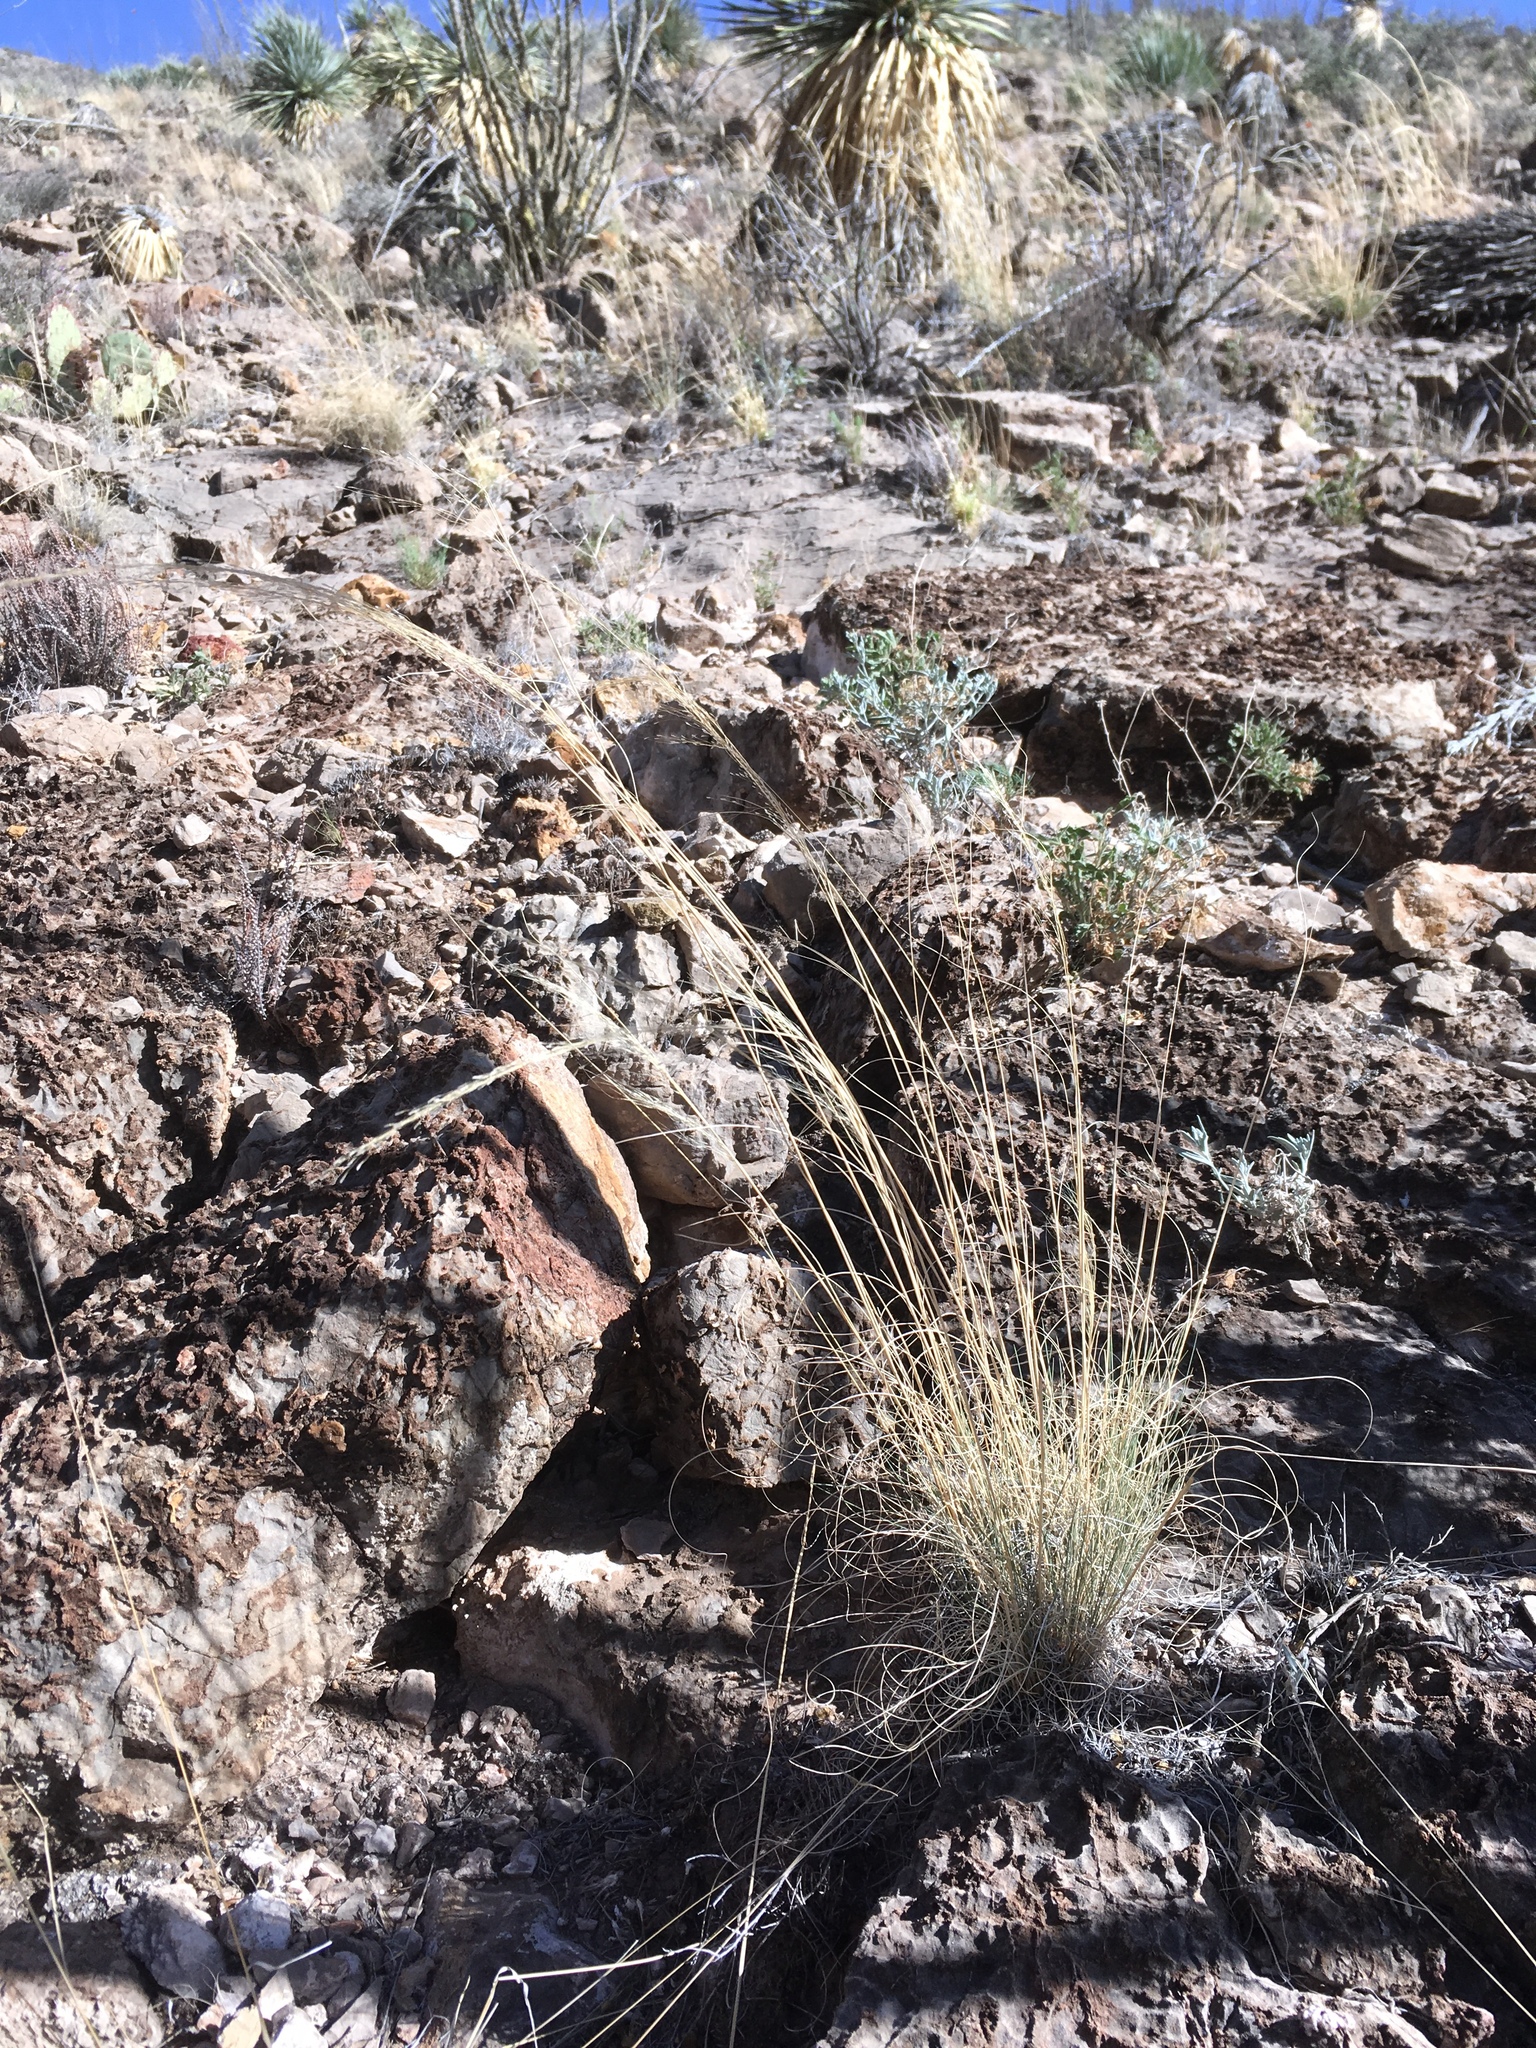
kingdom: Plantae
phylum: Tracheophyta
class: Liliopsida
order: Poales
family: Poaceae
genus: Muhlenbergia
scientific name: Muhlenbergia setifolia
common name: Curly-leaf muhly
